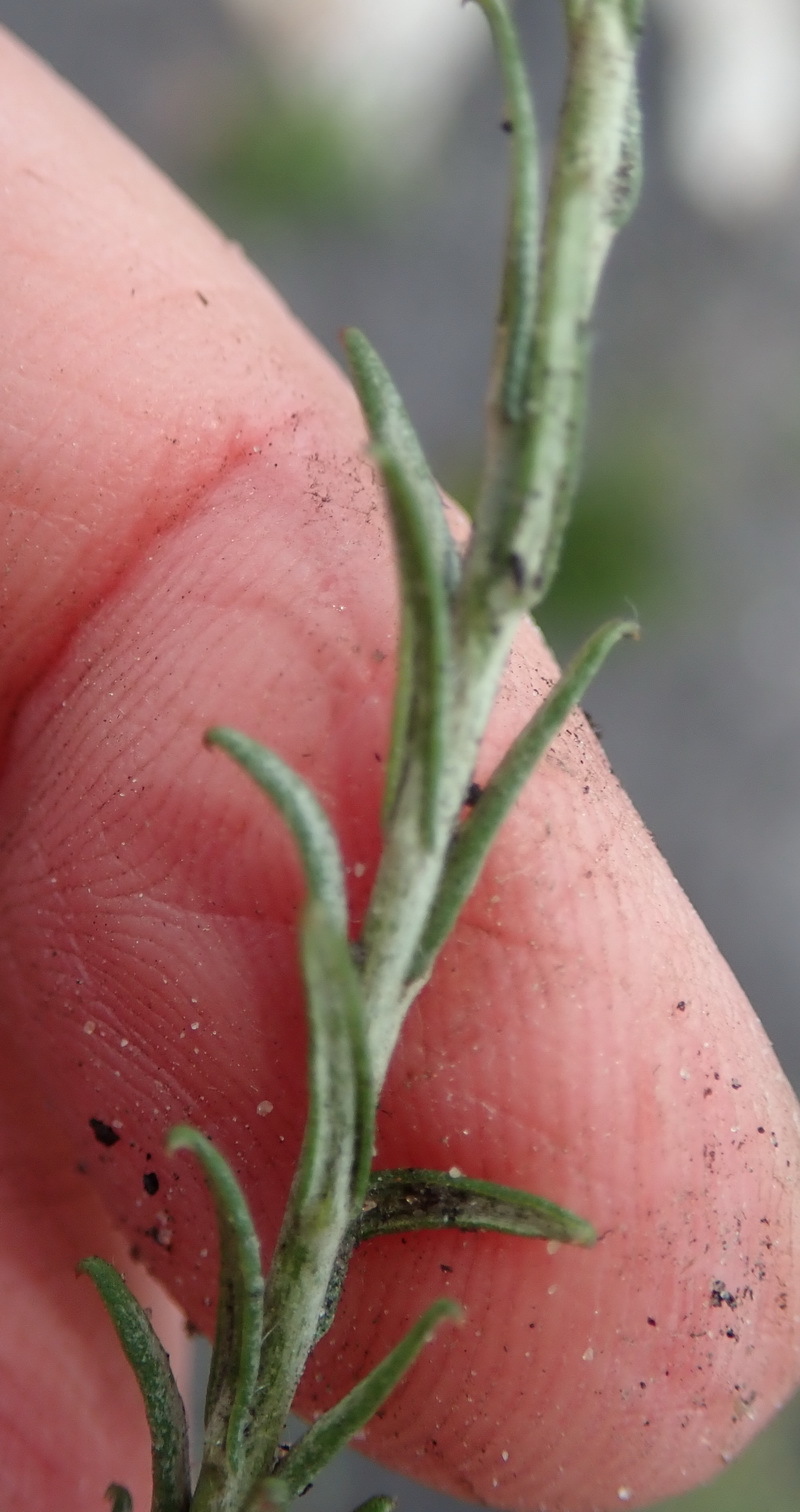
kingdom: Plantae
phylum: Tracheophyta
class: Magnoliopsida
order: Asterales
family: Asteraceae
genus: Helichrysum
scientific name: Helichrysum cymosum
